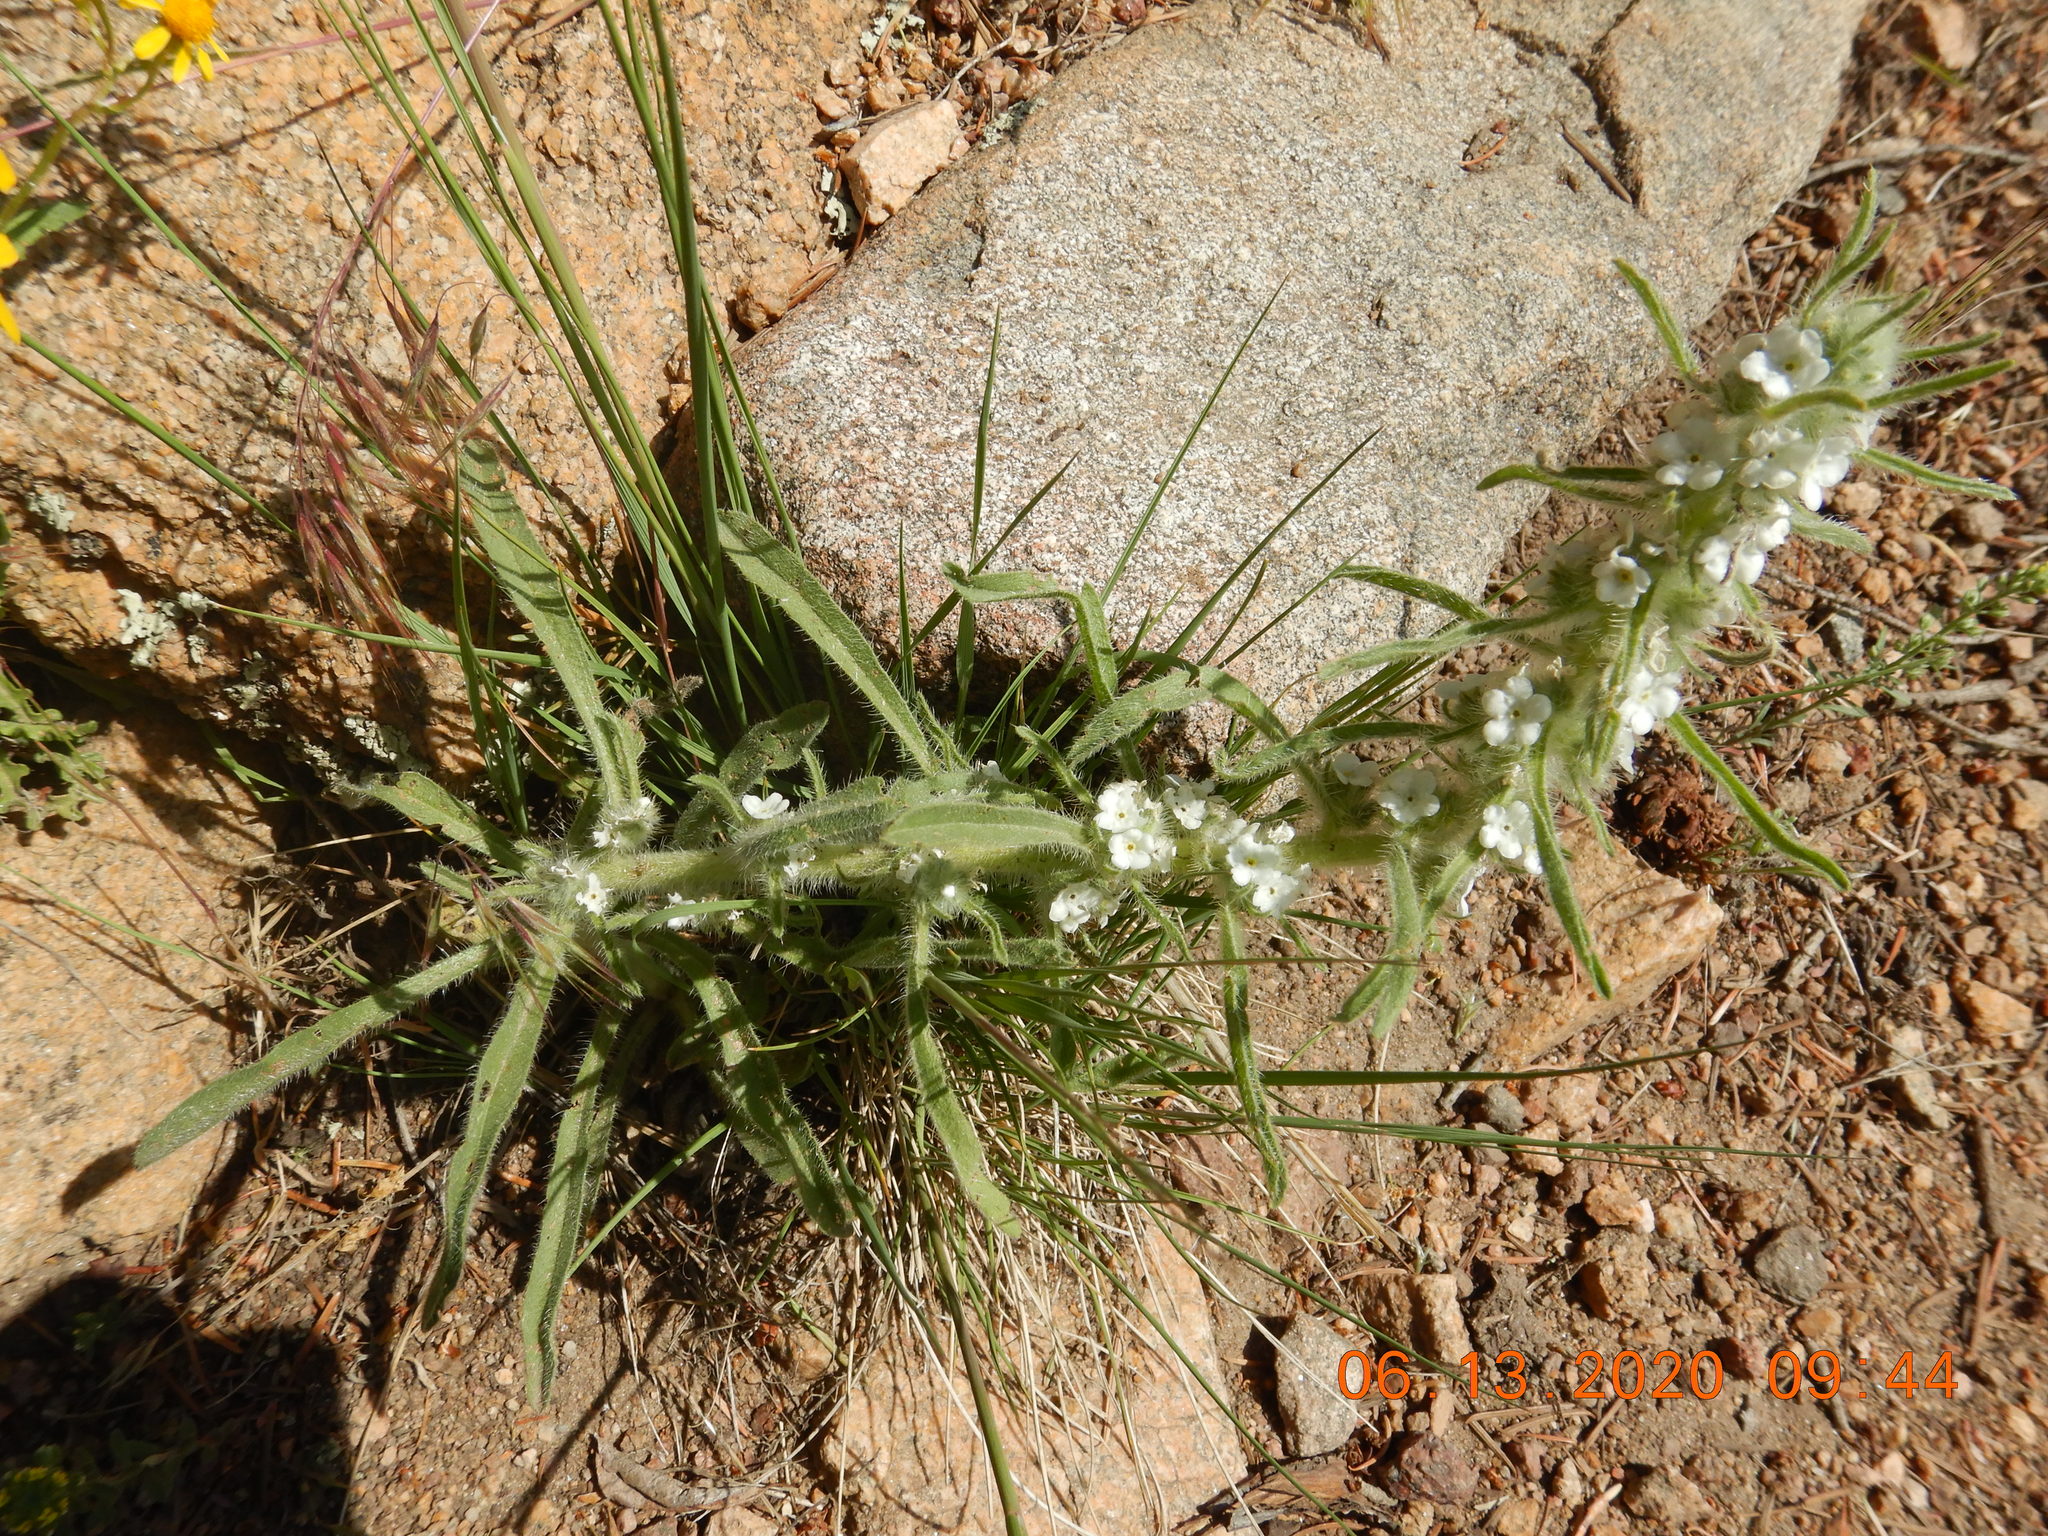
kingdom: Plantae
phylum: Tracheophyta
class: Magnoliopsida
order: Boraginales
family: Boraginaceae
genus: Oreocarya
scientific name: Oreocarya virgata
